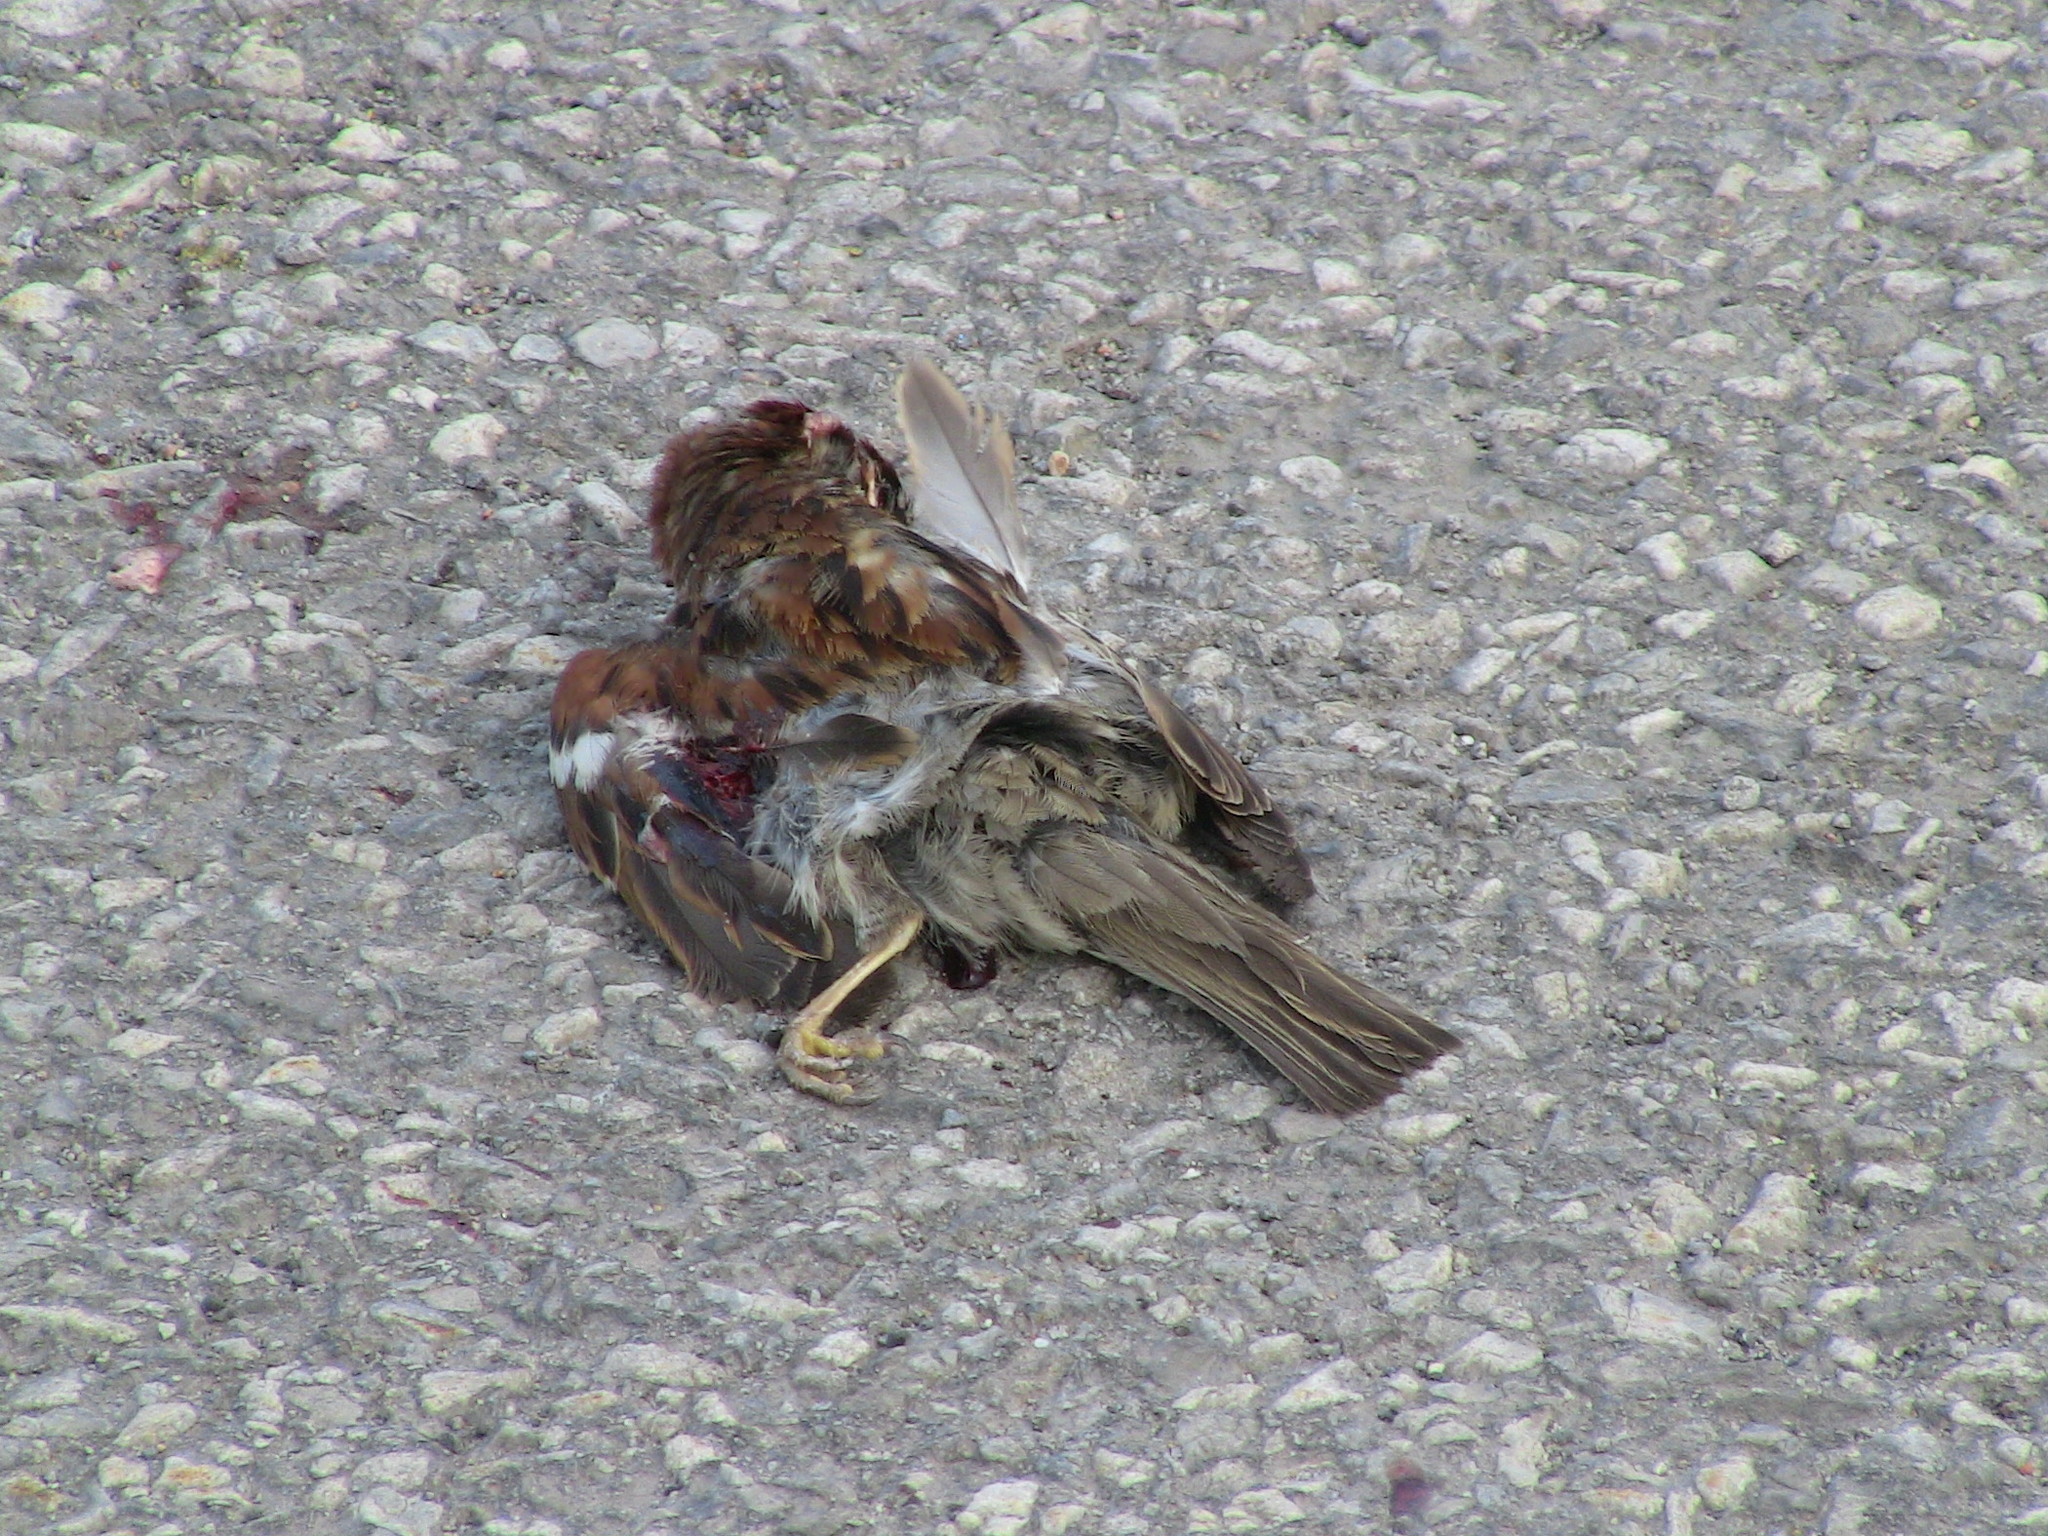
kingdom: Animalia
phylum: Chordata
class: Aves
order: Passeriformes
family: Passeridae
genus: Passer
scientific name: Passer domesticus
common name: House sparrow
